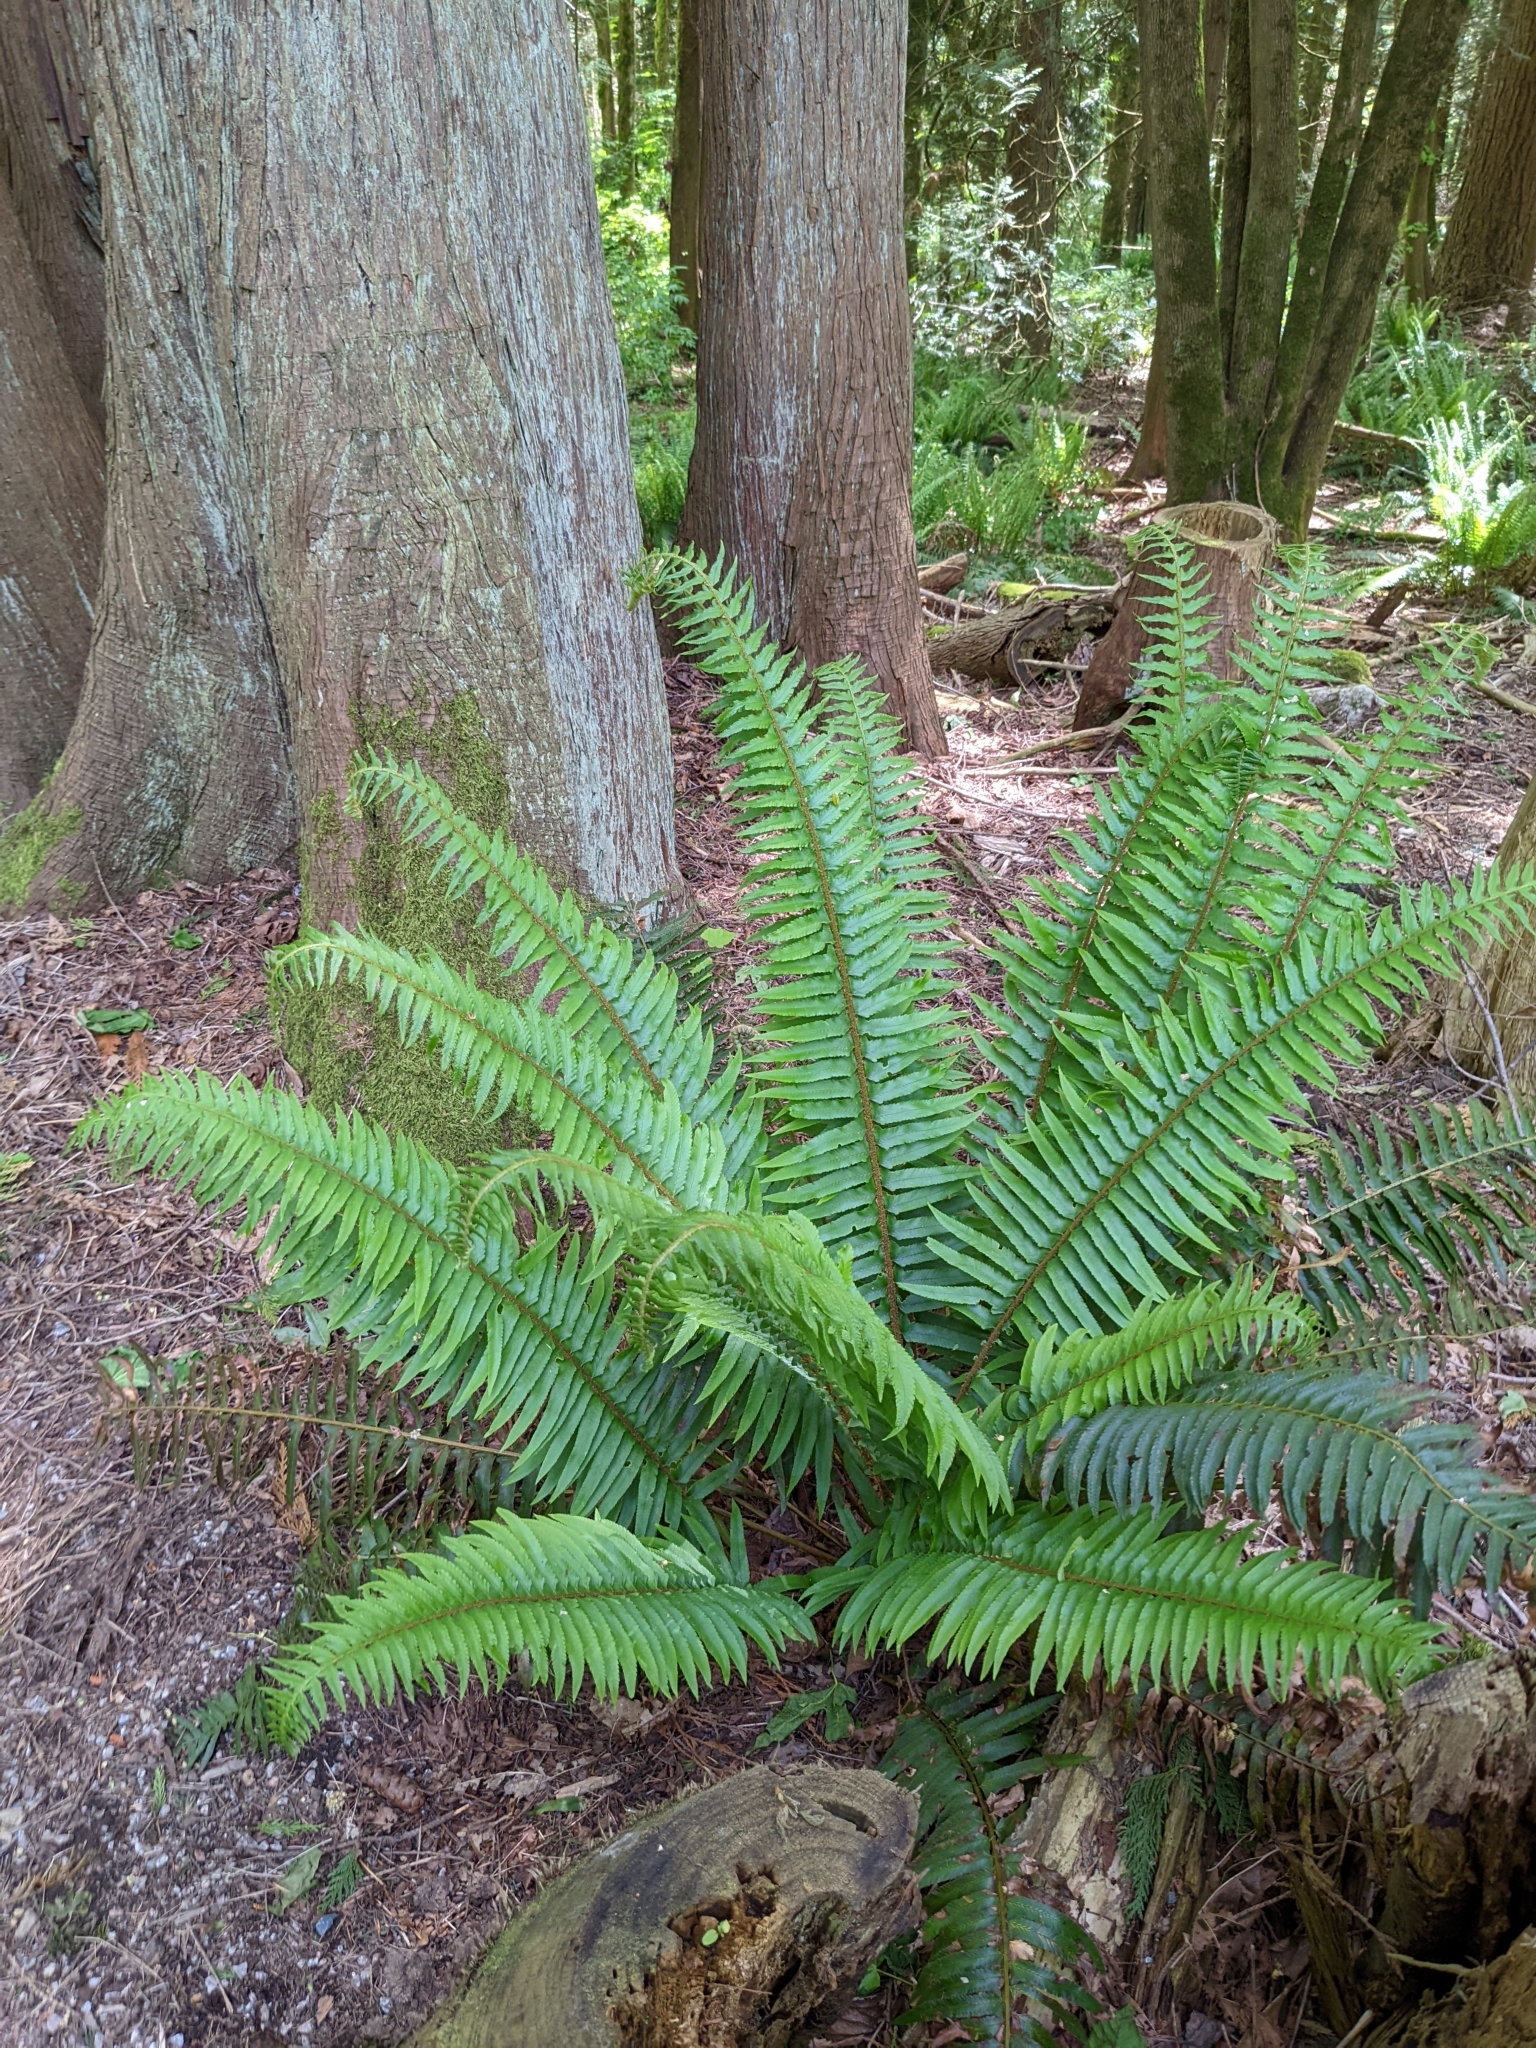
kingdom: Plantae
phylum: Tracheophyta
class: Polypodiopsida
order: Polypodiales
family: Dryopteridaceae
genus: Polystichum
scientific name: Polystichum munitum
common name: Western sword-fern
